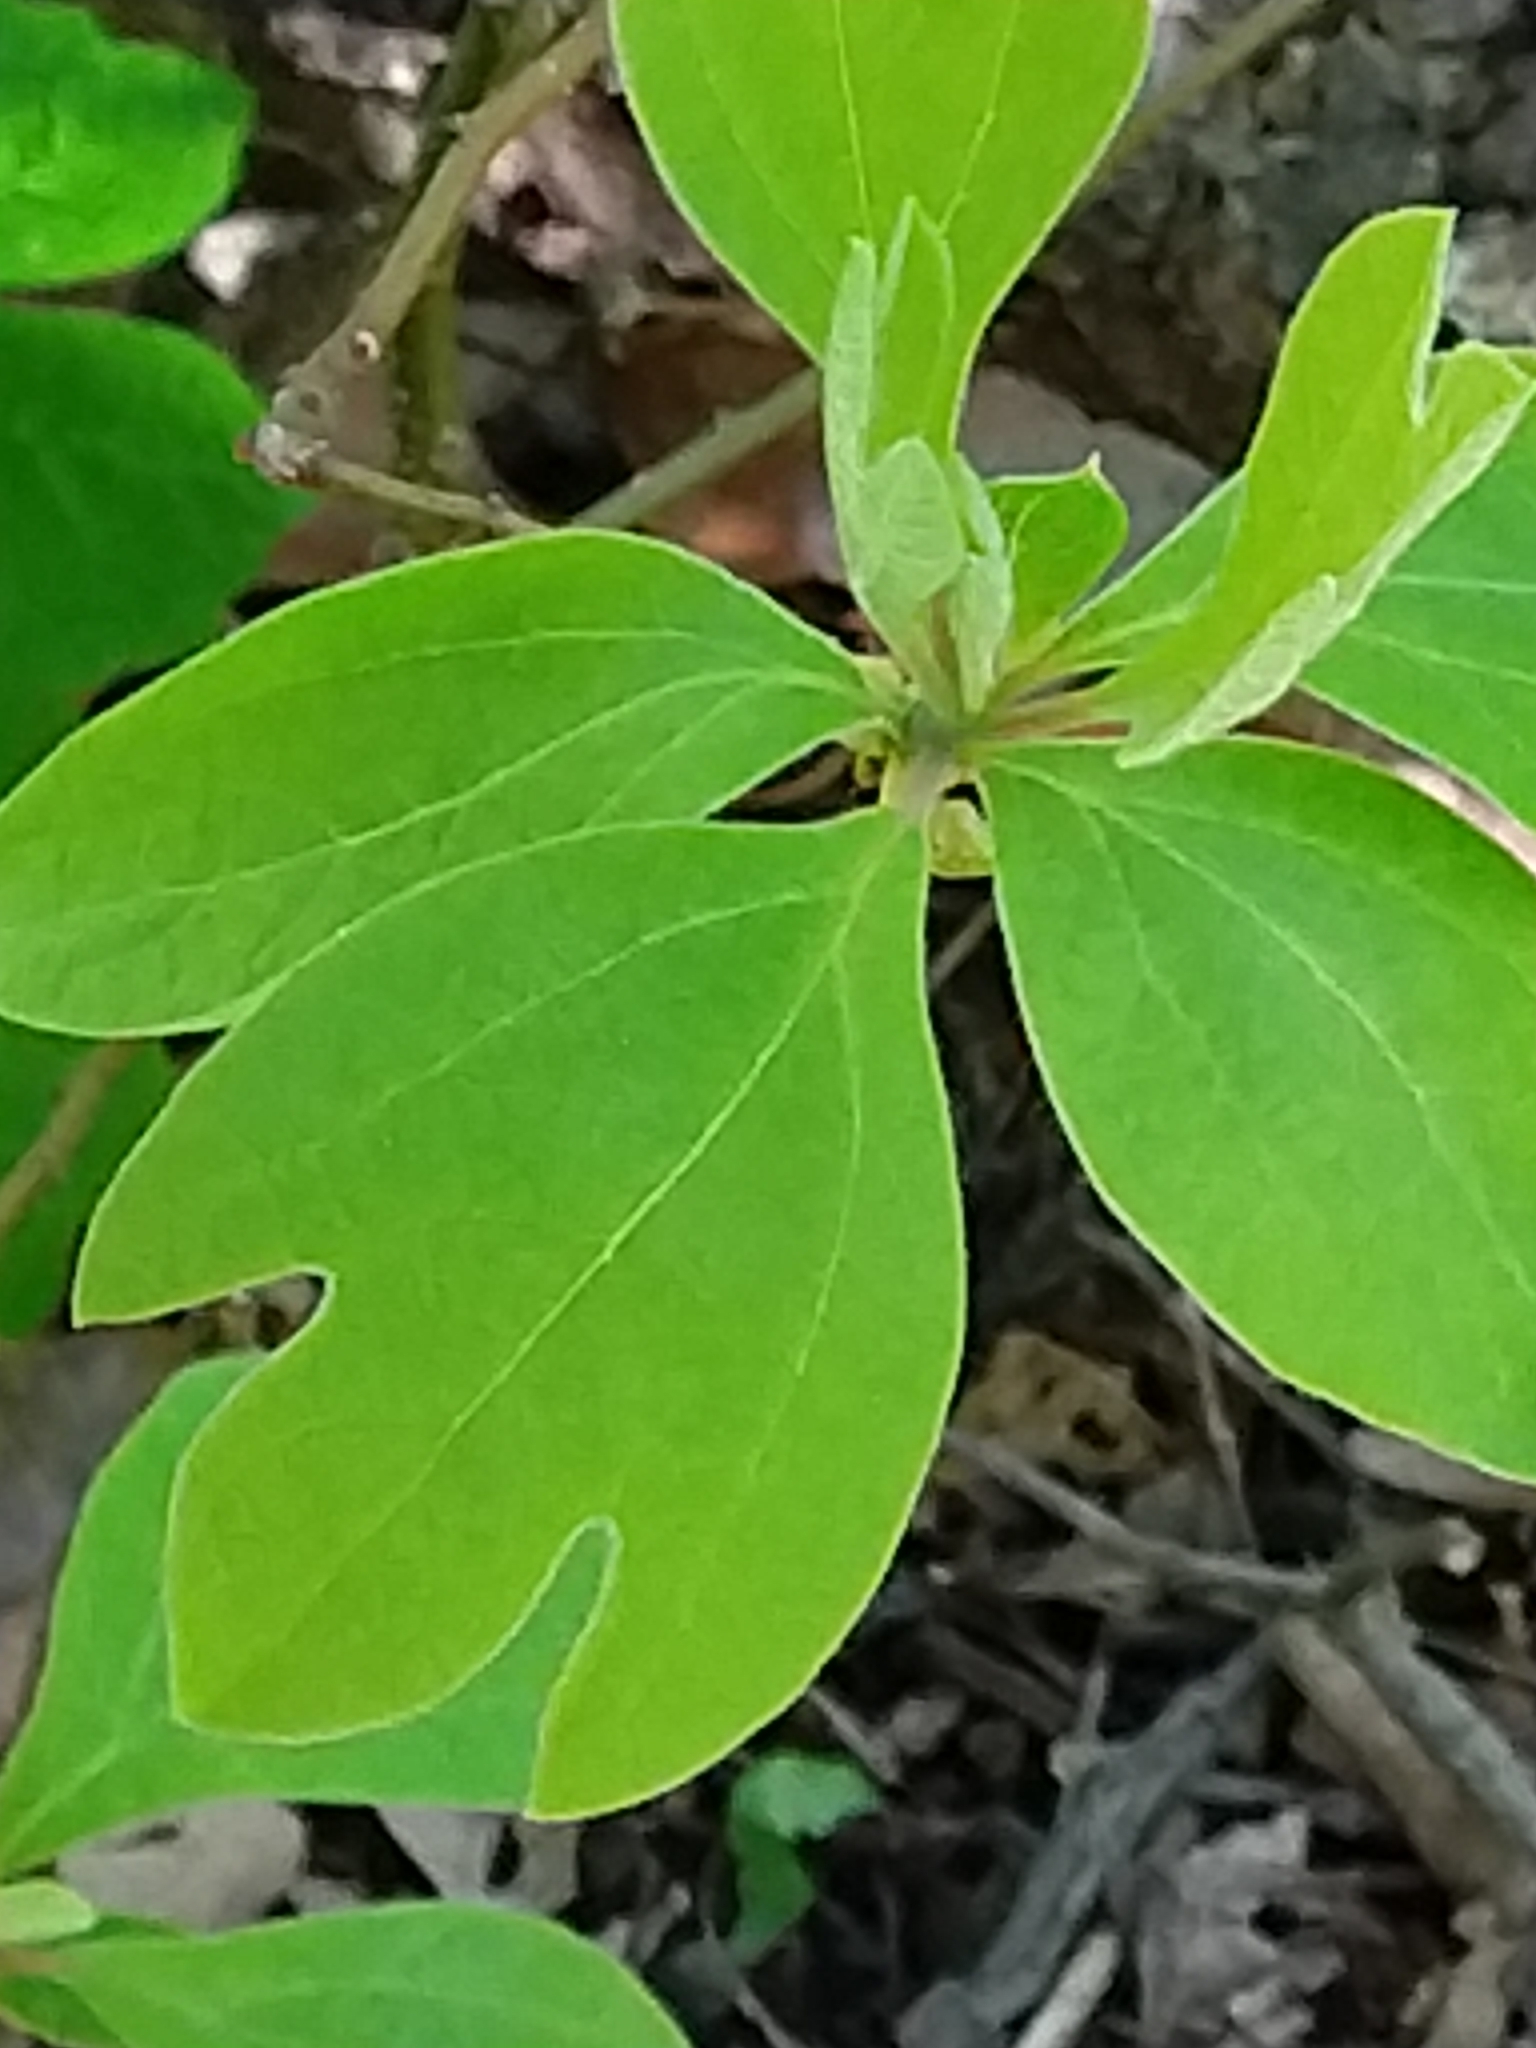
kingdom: Plantae
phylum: Tracheophyta
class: Magnoliopsida
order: Laurales
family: Lauraceae
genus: Sassafras
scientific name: Sassafras albidum
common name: Sassafras
